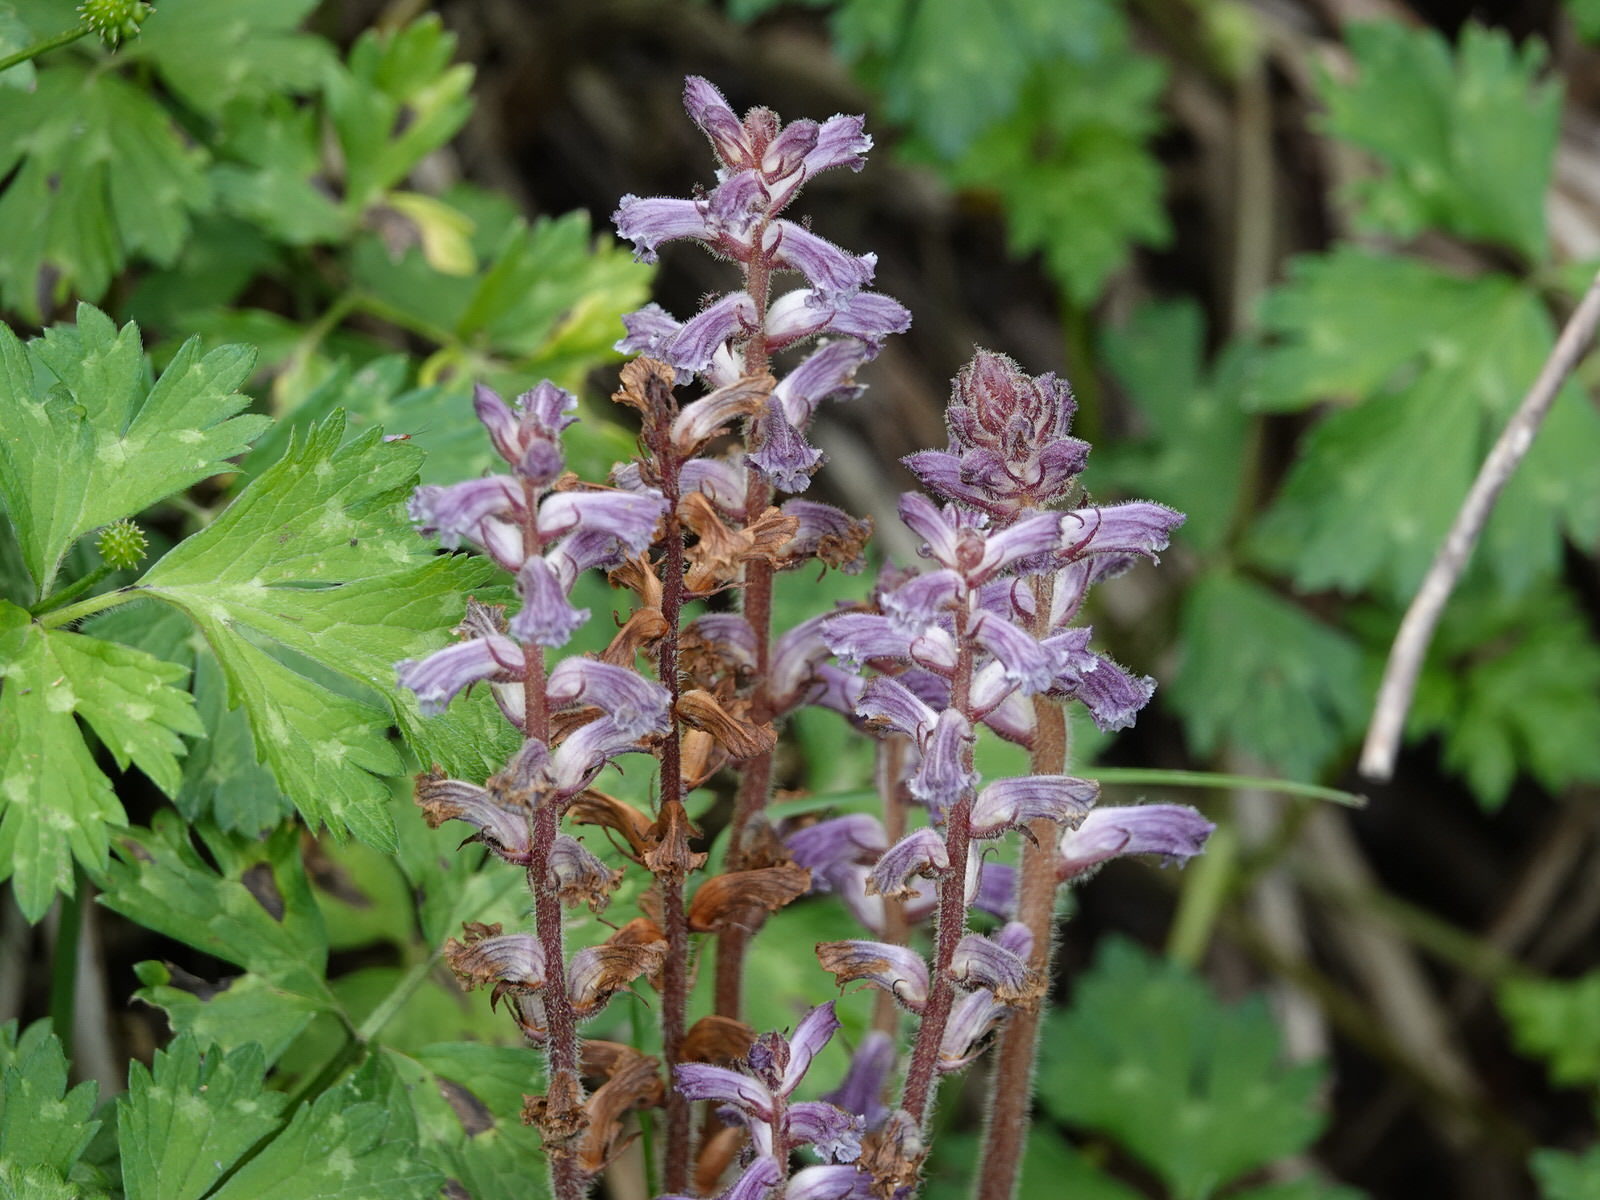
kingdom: Plantae
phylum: Tracheophyta
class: Magnoliopsida
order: Lamiales
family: Orobanchaceae
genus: Orobanche
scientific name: Orobanche minor
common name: Common broomrape
